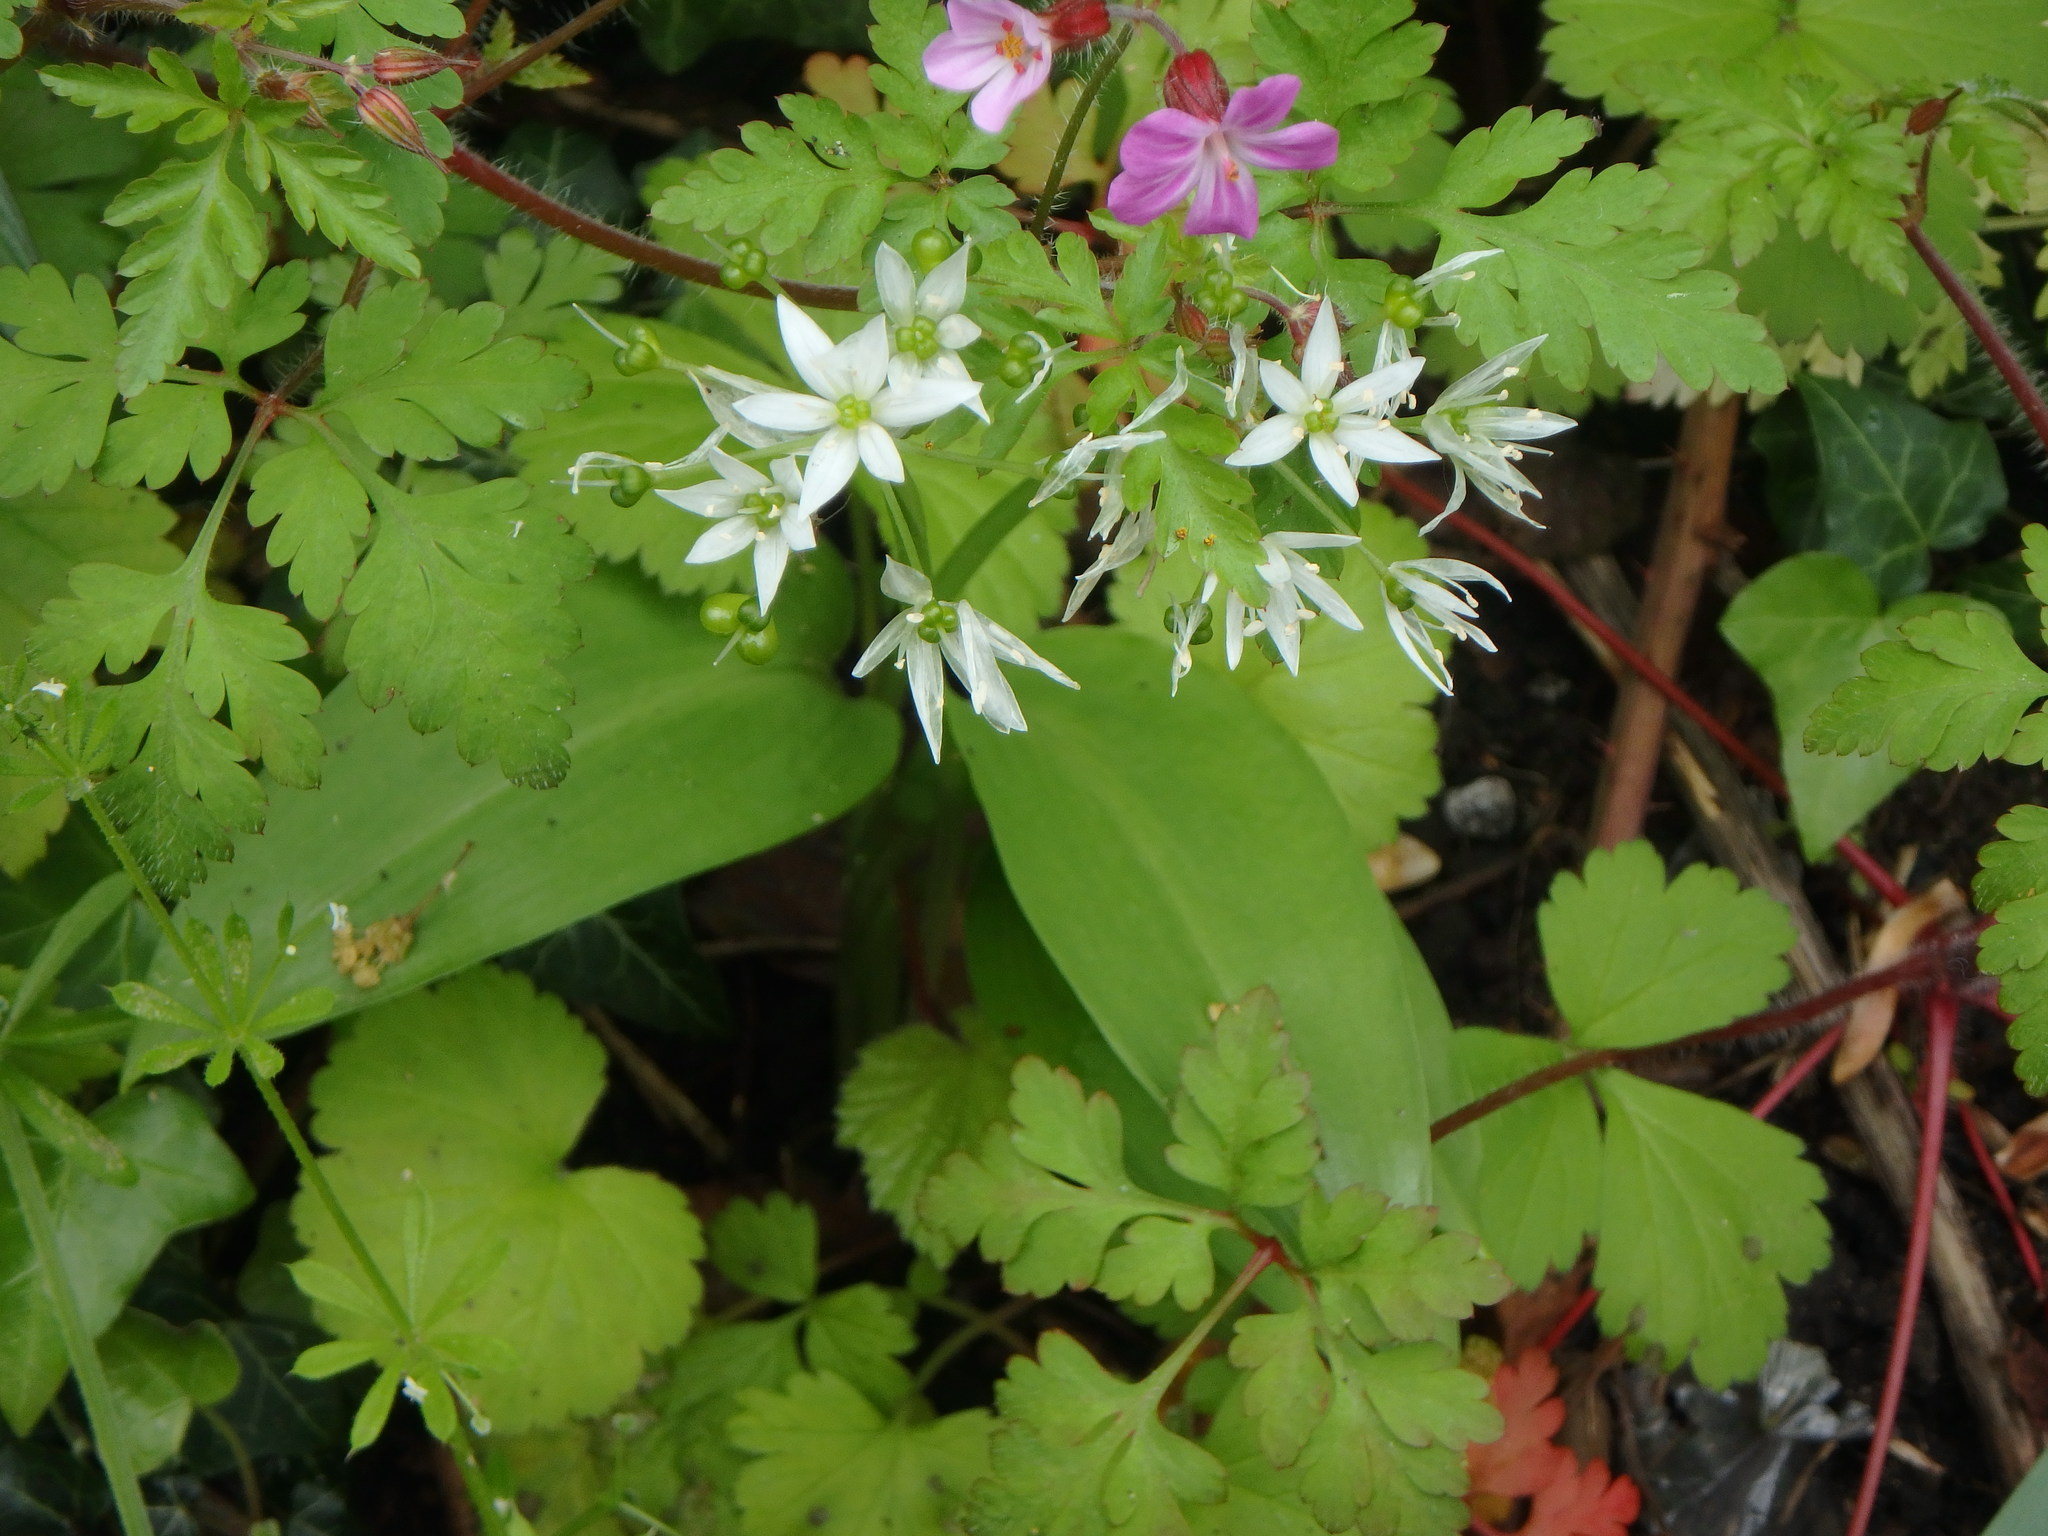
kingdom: Plantae
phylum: Tracheophyta
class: Liliopsida
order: Asparagales
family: Amaryllidaceae
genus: Allium
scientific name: Allium ursinum
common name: Ramsons
